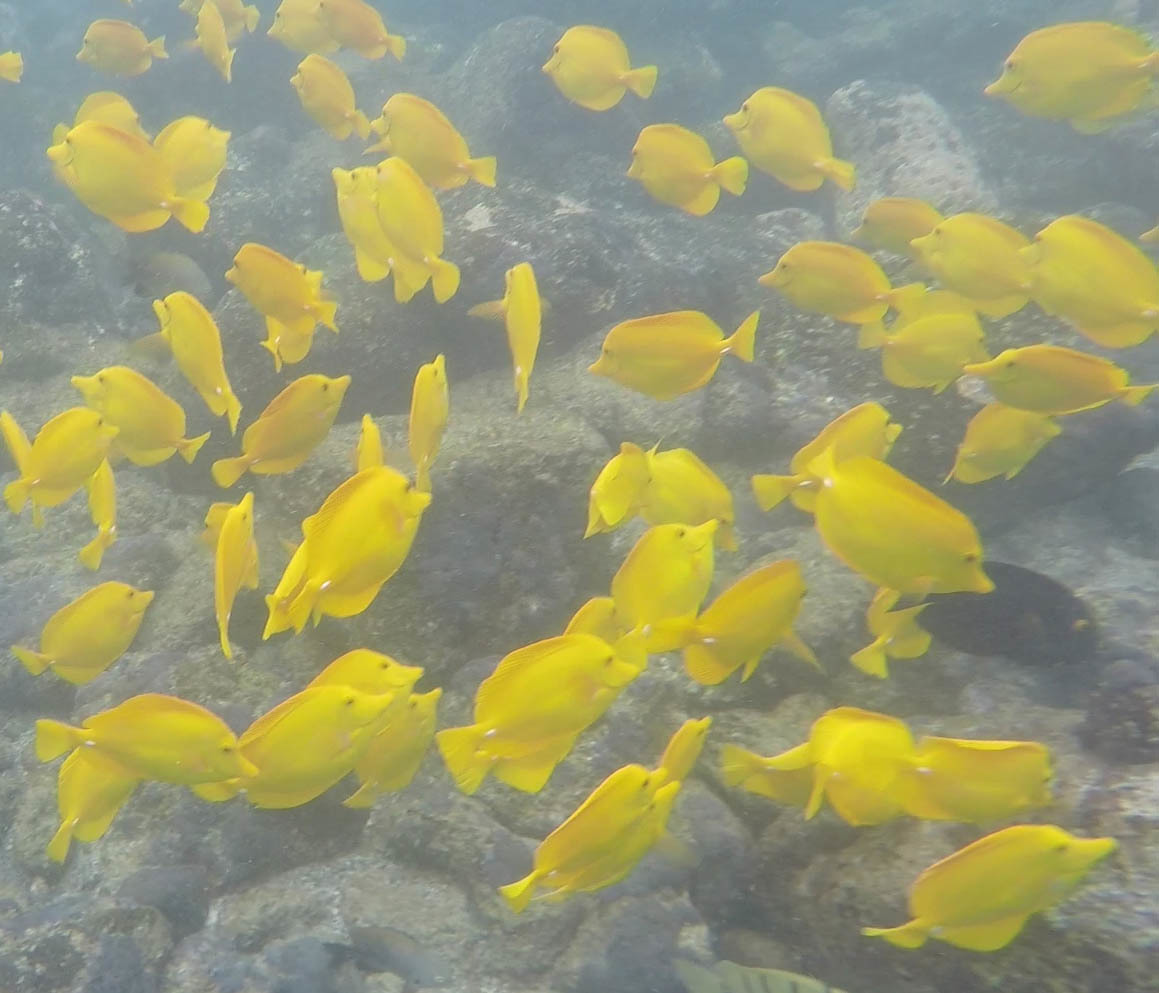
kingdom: Animalia
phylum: Chordata
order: Perciformes
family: Acanthuridae
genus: Zebrasoma
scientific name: Zebrasoma flavescens
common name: Yellow tang
